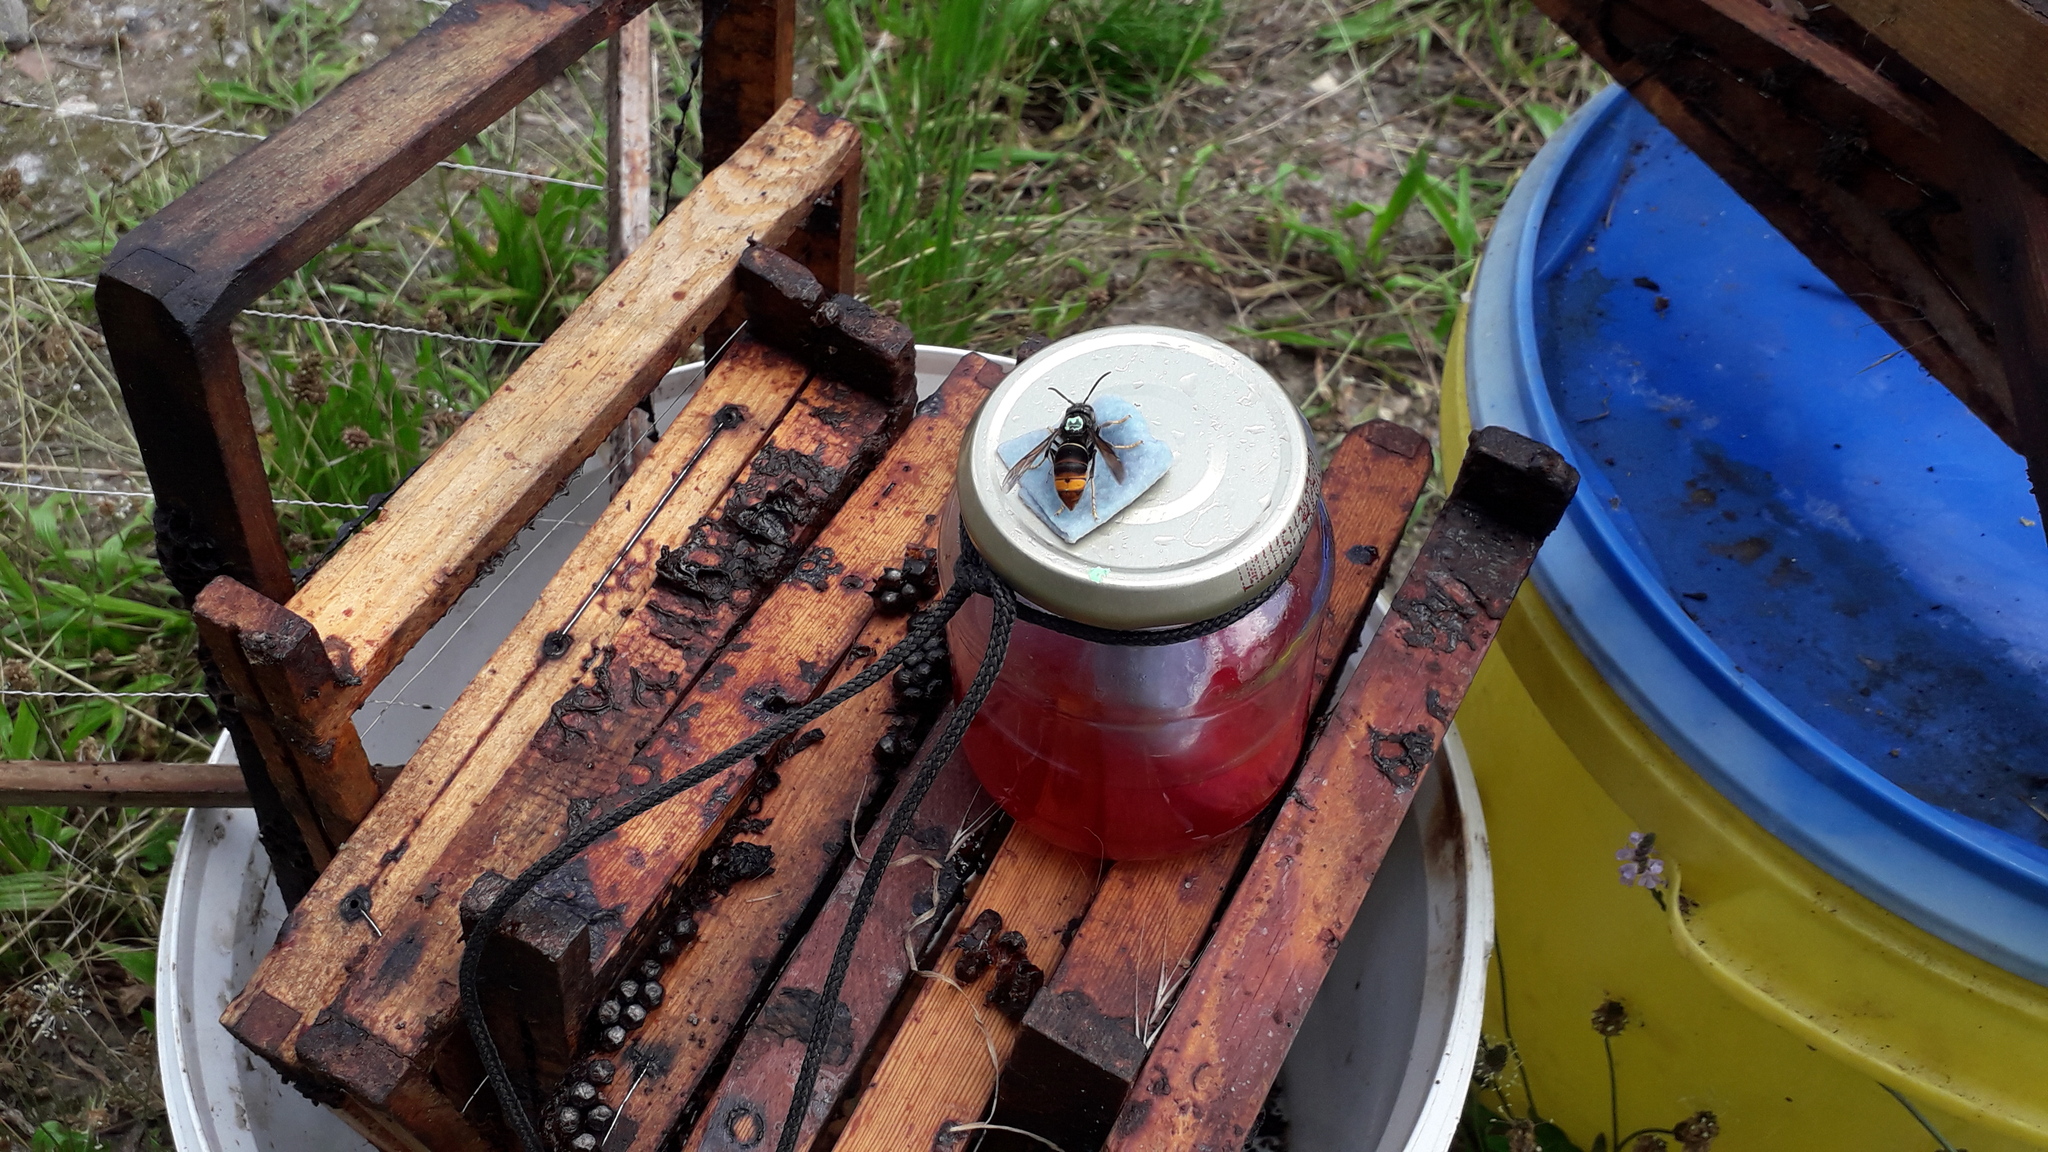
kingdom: Animalia
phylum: Arthropoda
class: Insecta
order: Hymenoptera
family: Vespidae
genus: Vespa
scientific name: Vespa velutina
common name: Asian hornet
